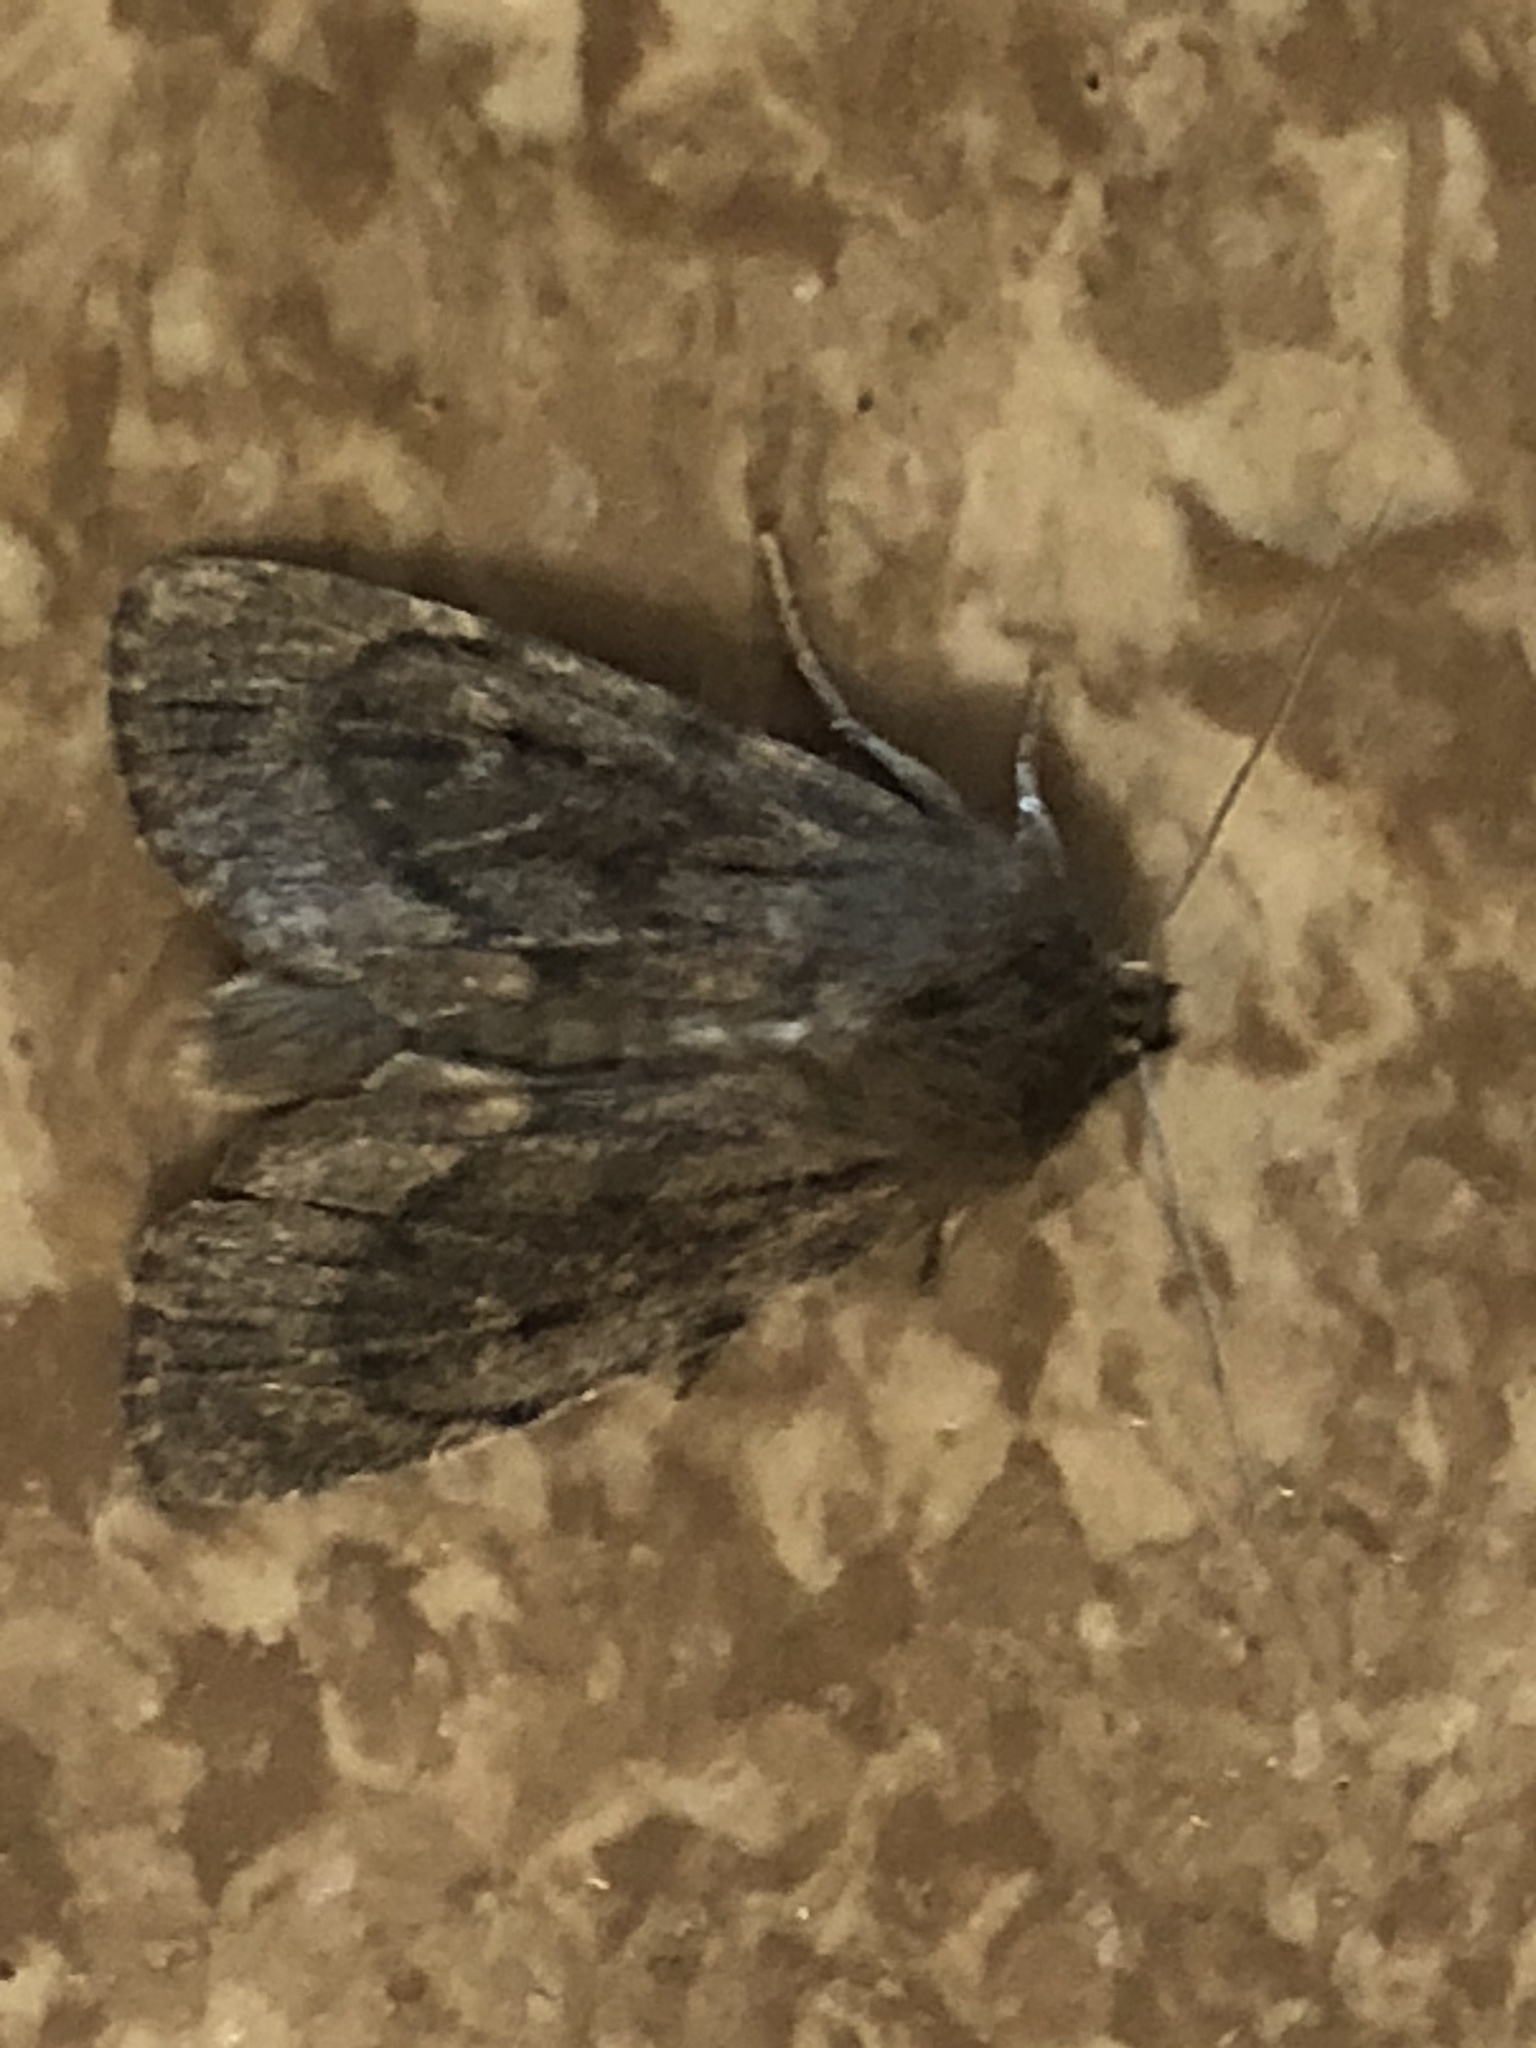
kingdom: Animalia
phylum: Arthropoda
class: Insecta
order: Lepidoptera
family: Noctuidae
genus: Ufeus
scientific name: Ufeus satyricus
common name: Brown satyr moth
